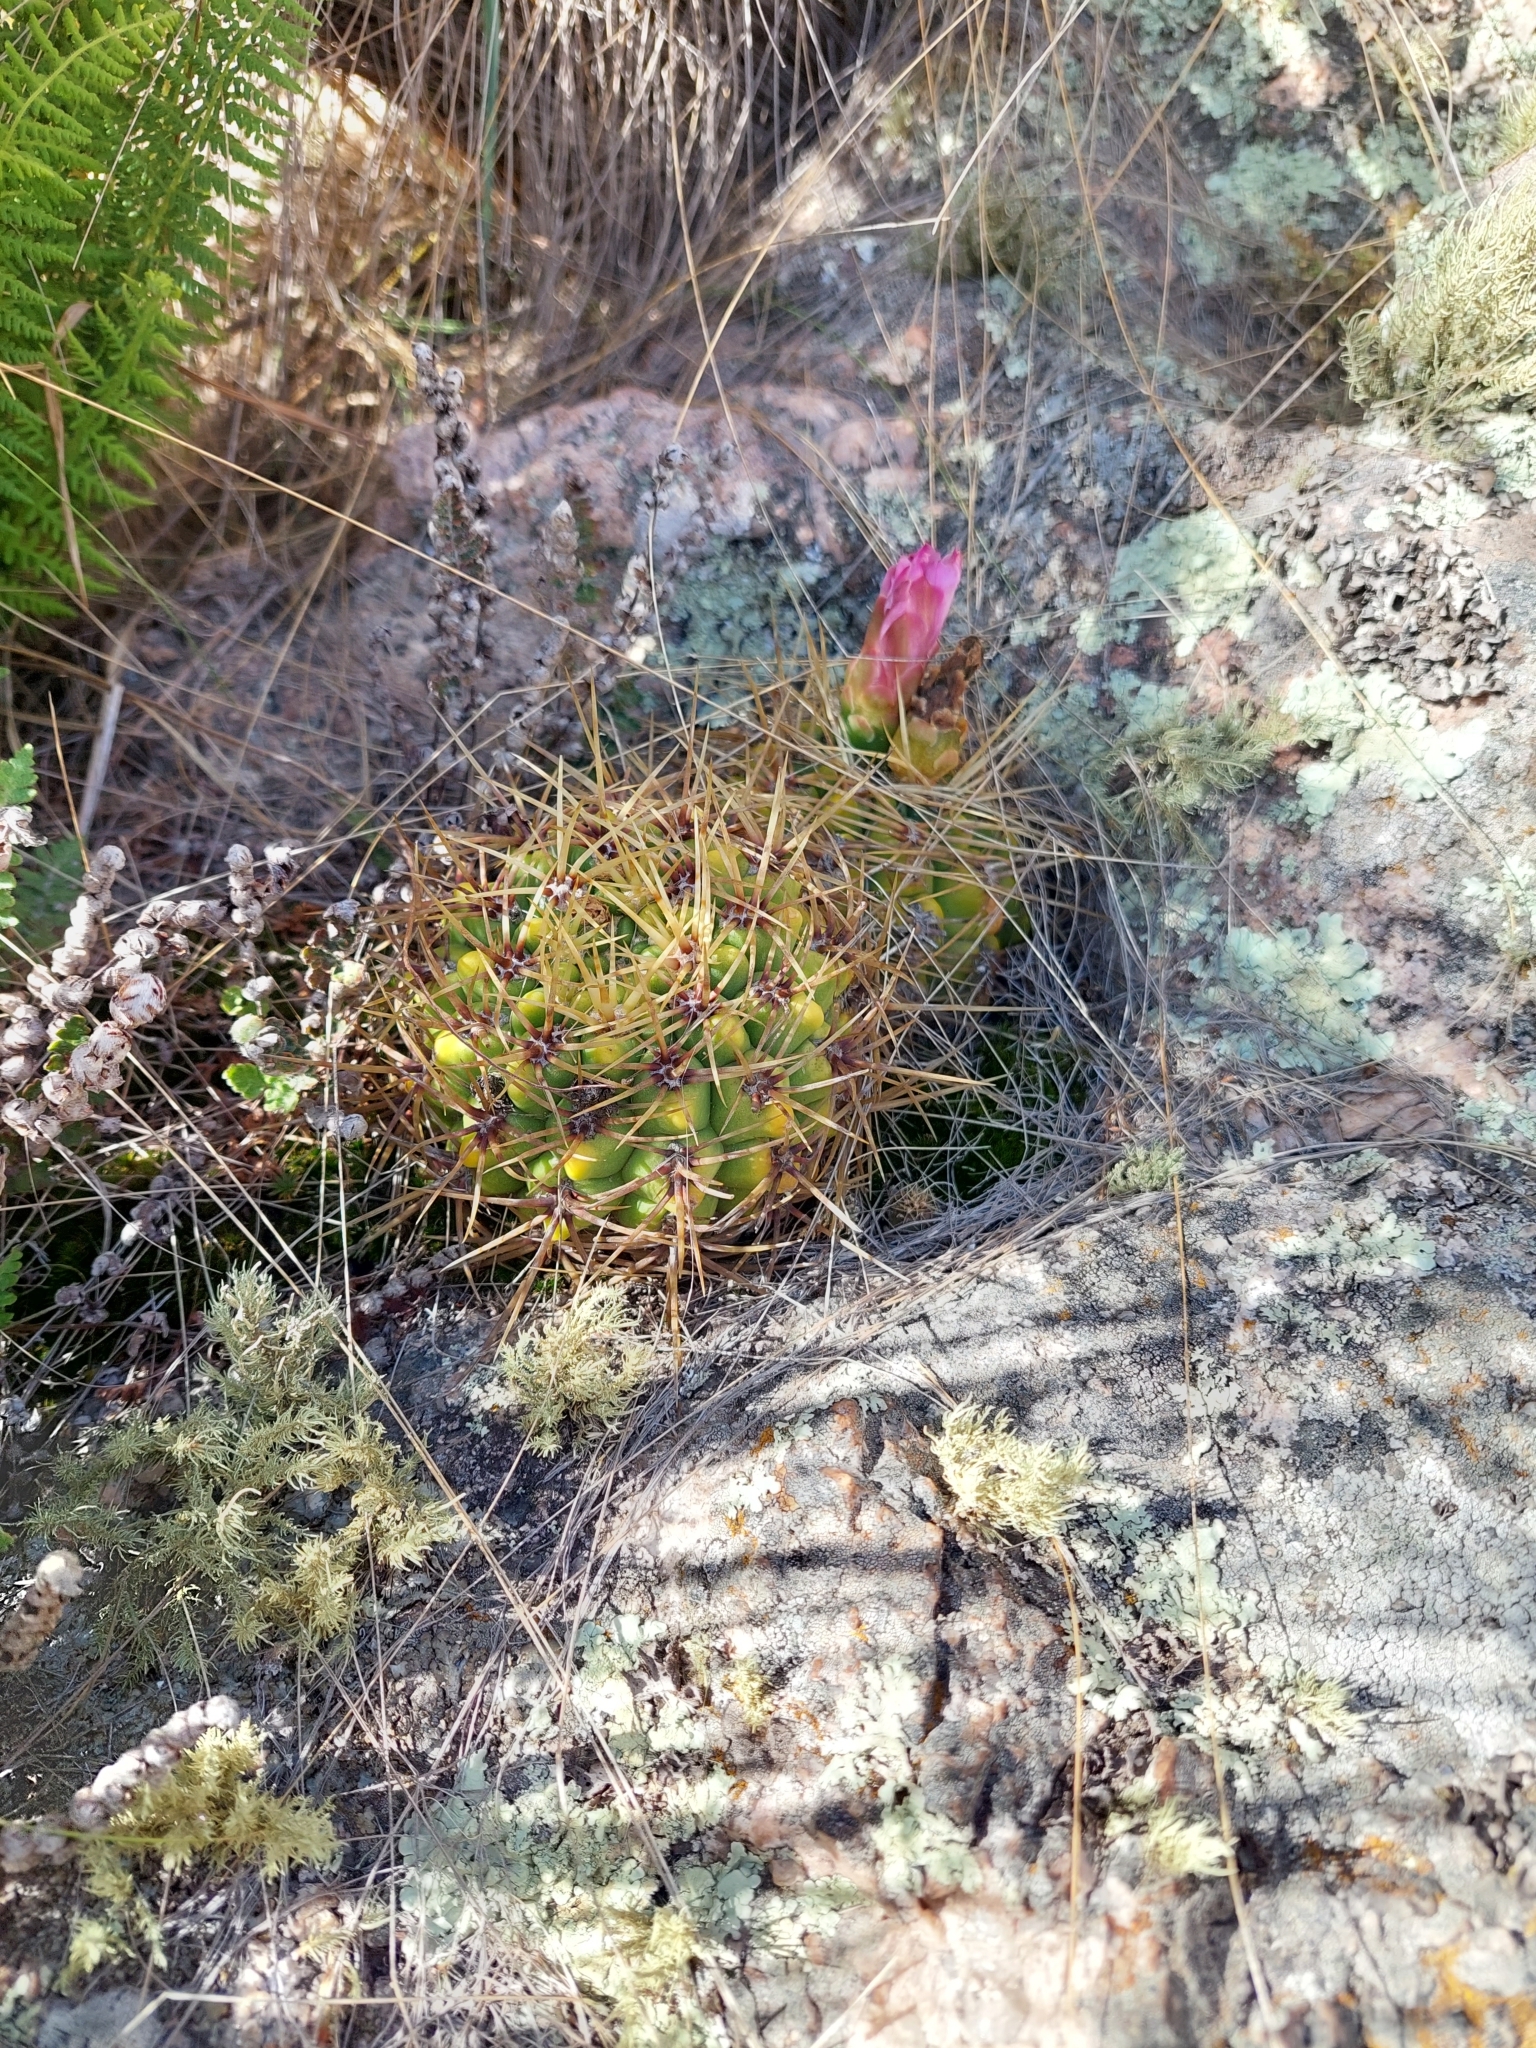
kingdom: Plantae
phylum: Tracheophyta
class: Magnoliopsida
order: Caryophyllales
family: Cactaceae
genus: Gymnocalycium
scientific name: Gymnocalycium monvillei
